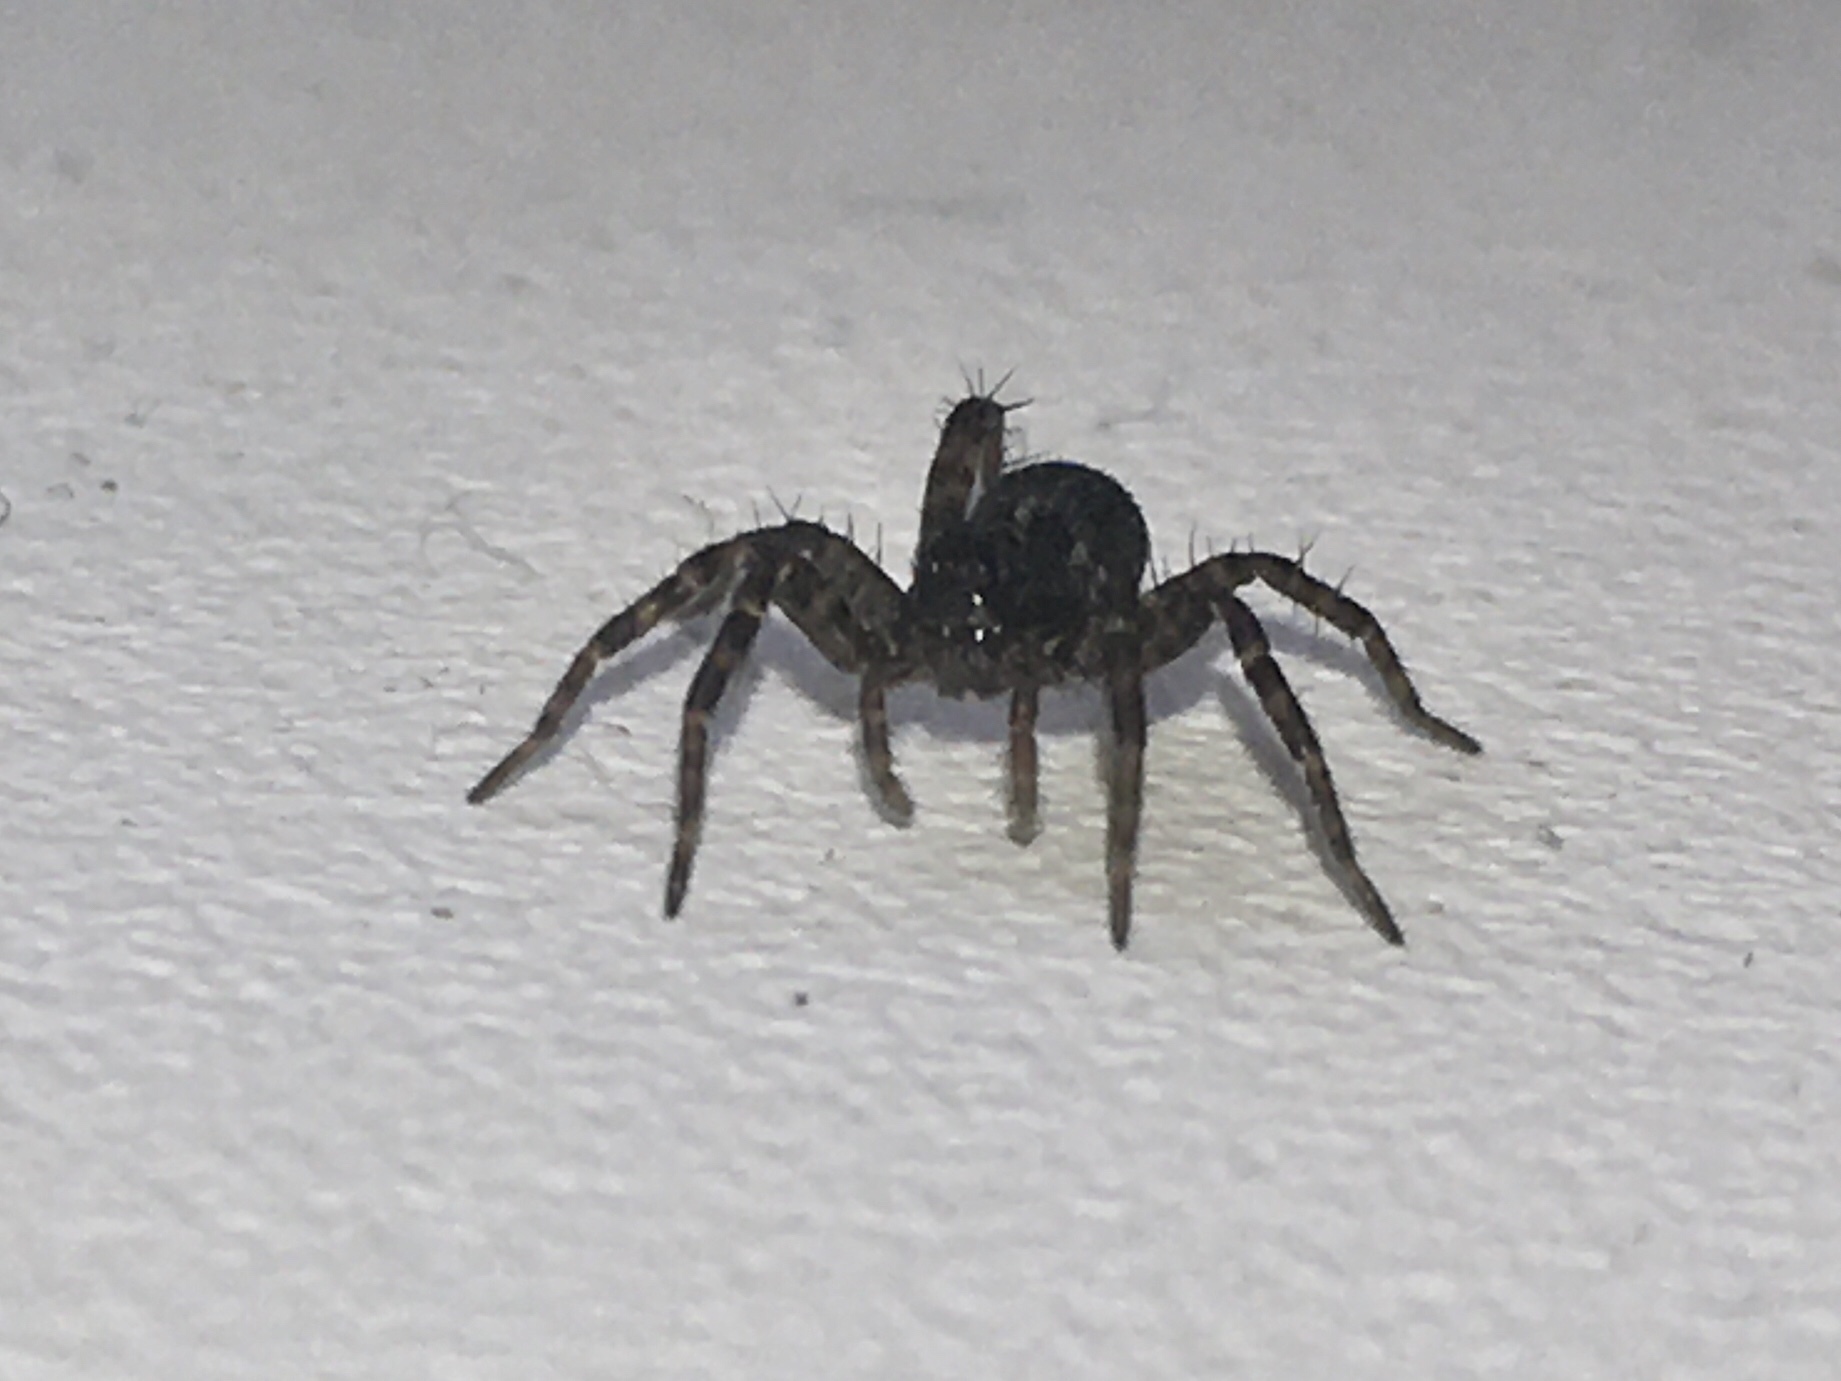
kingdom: Animalia
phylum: Arthropoda
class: Arachnida
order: Araneae
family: Lycosidae
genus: Pardosa
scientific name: Pardosa
